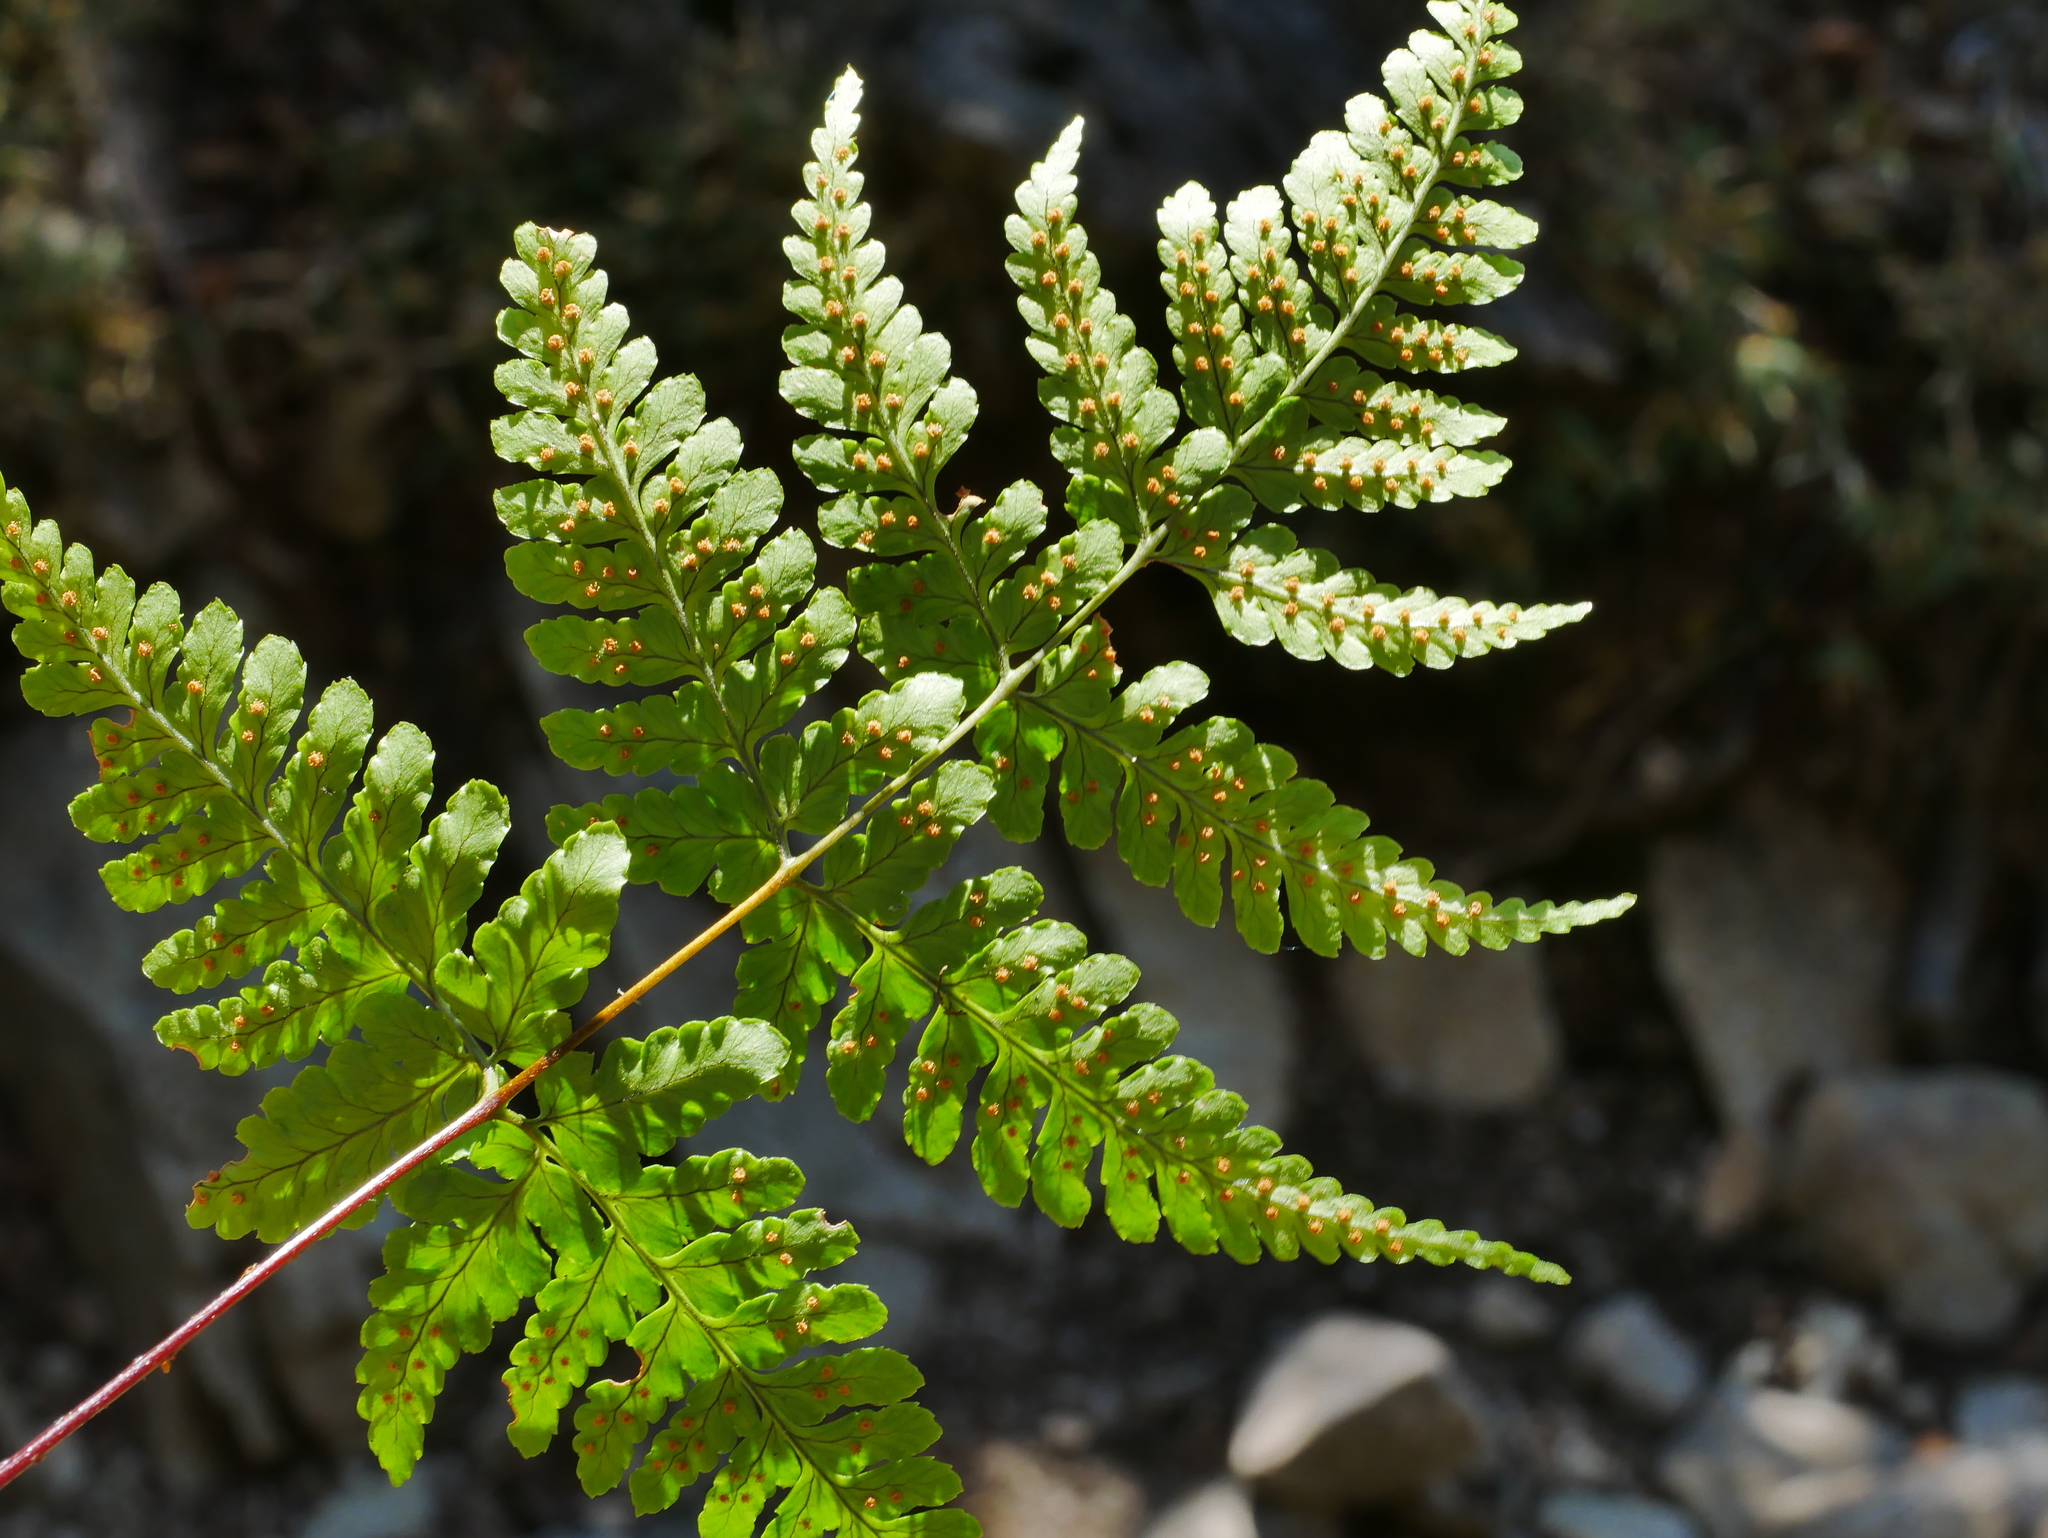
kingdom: Plantae
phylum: Tracheophyta
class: Polypodiopsida
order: Polypodiales
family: Dryopteridaceae
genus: Dryopteris
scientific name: Dryopteris cacaina
